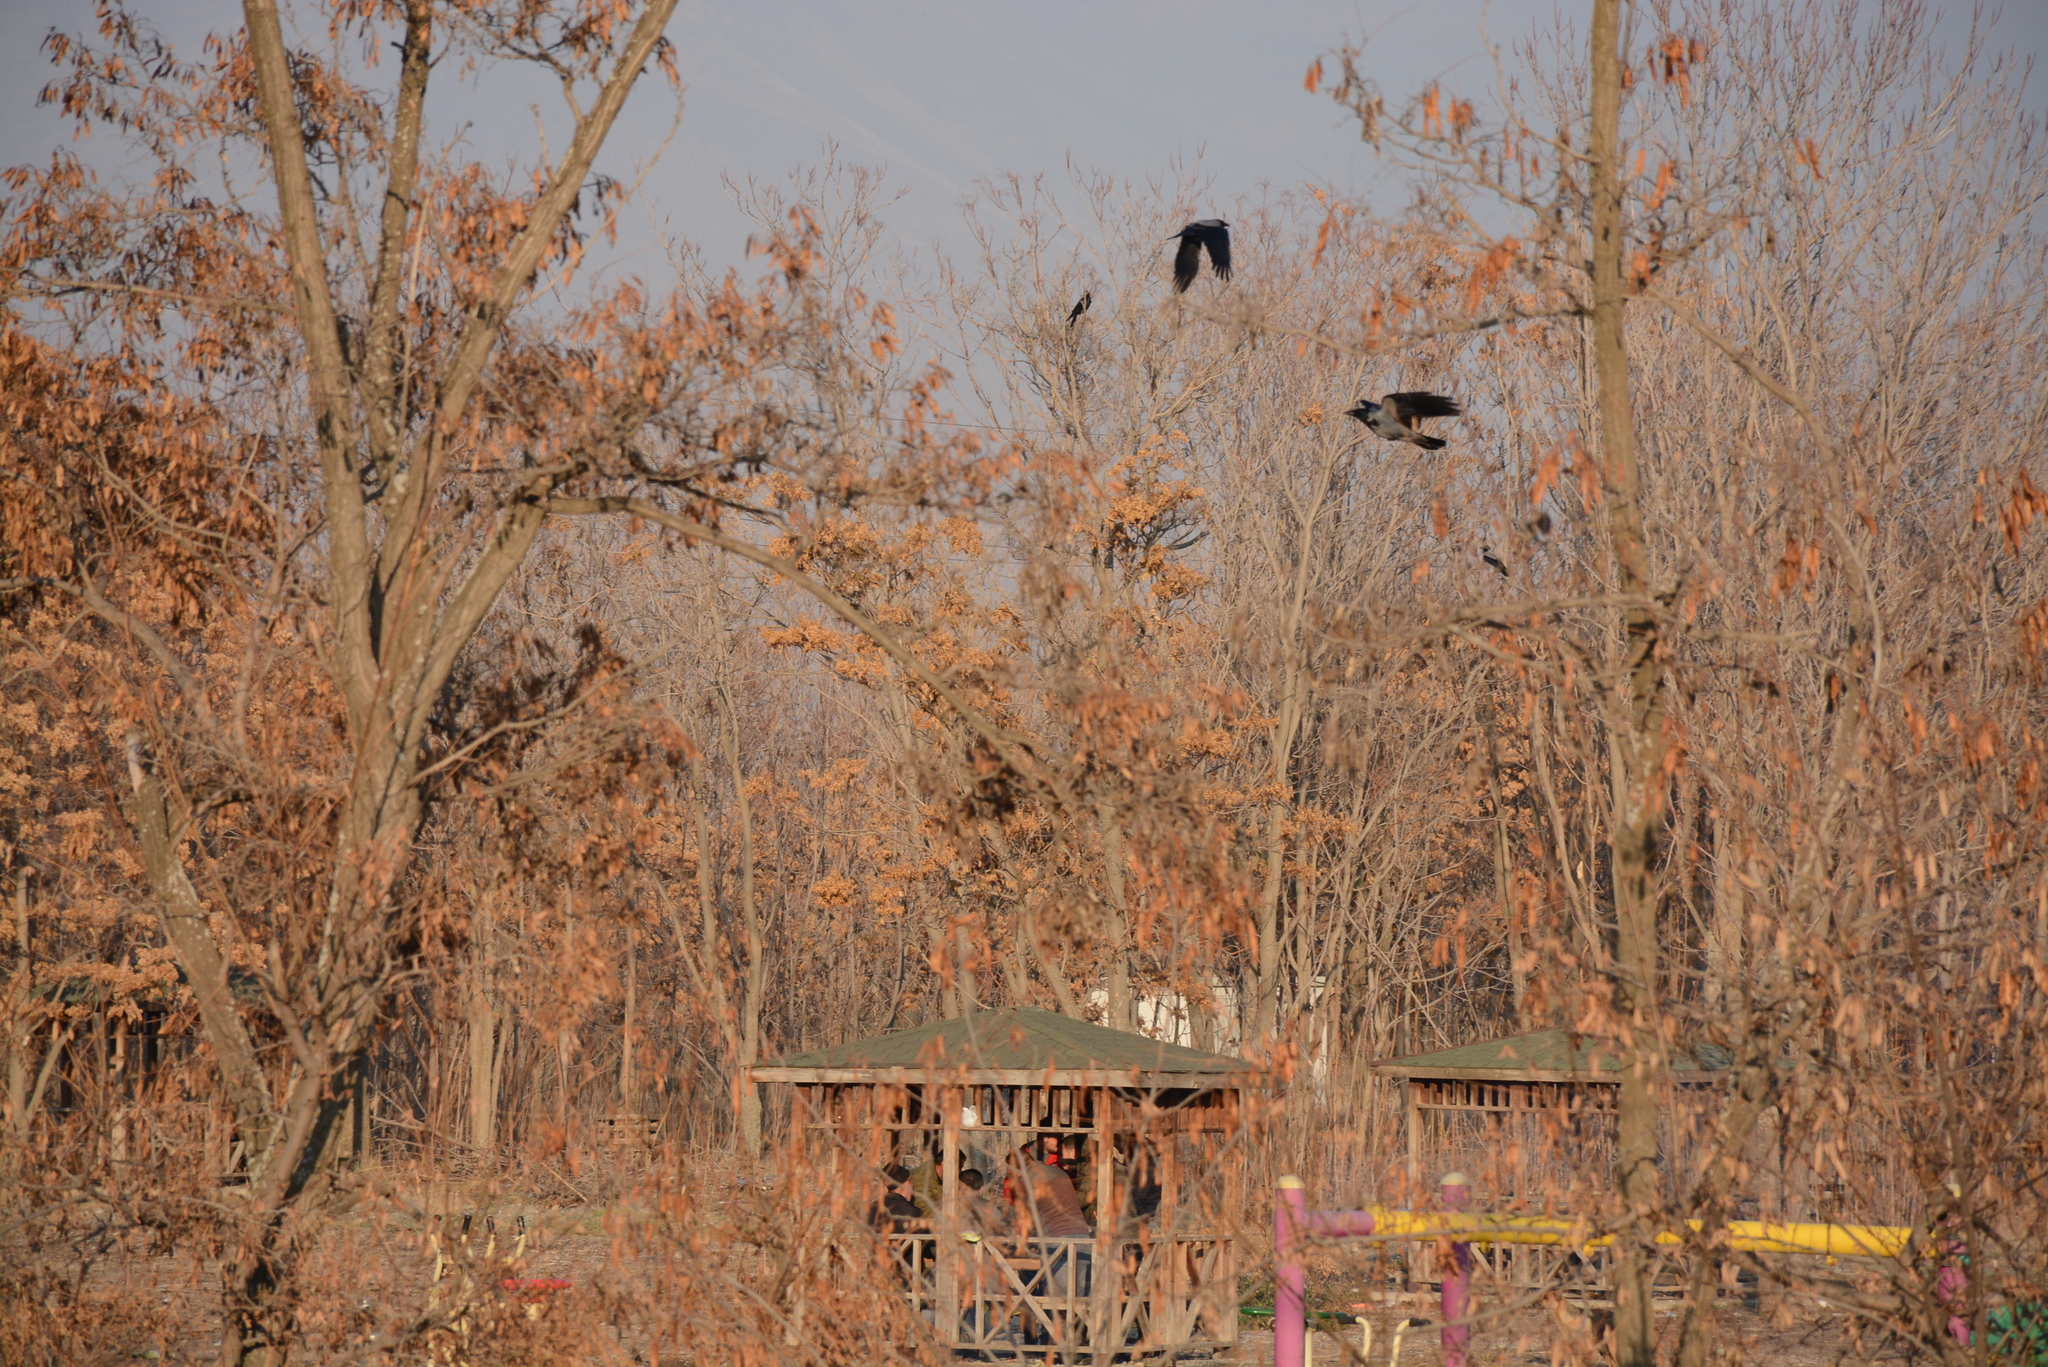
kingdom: Animalia
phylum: Chordata
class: Aves
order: Passeriformes
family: Corvidae
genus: Corvus
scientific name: Corvus cornix
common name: Hooded crow
